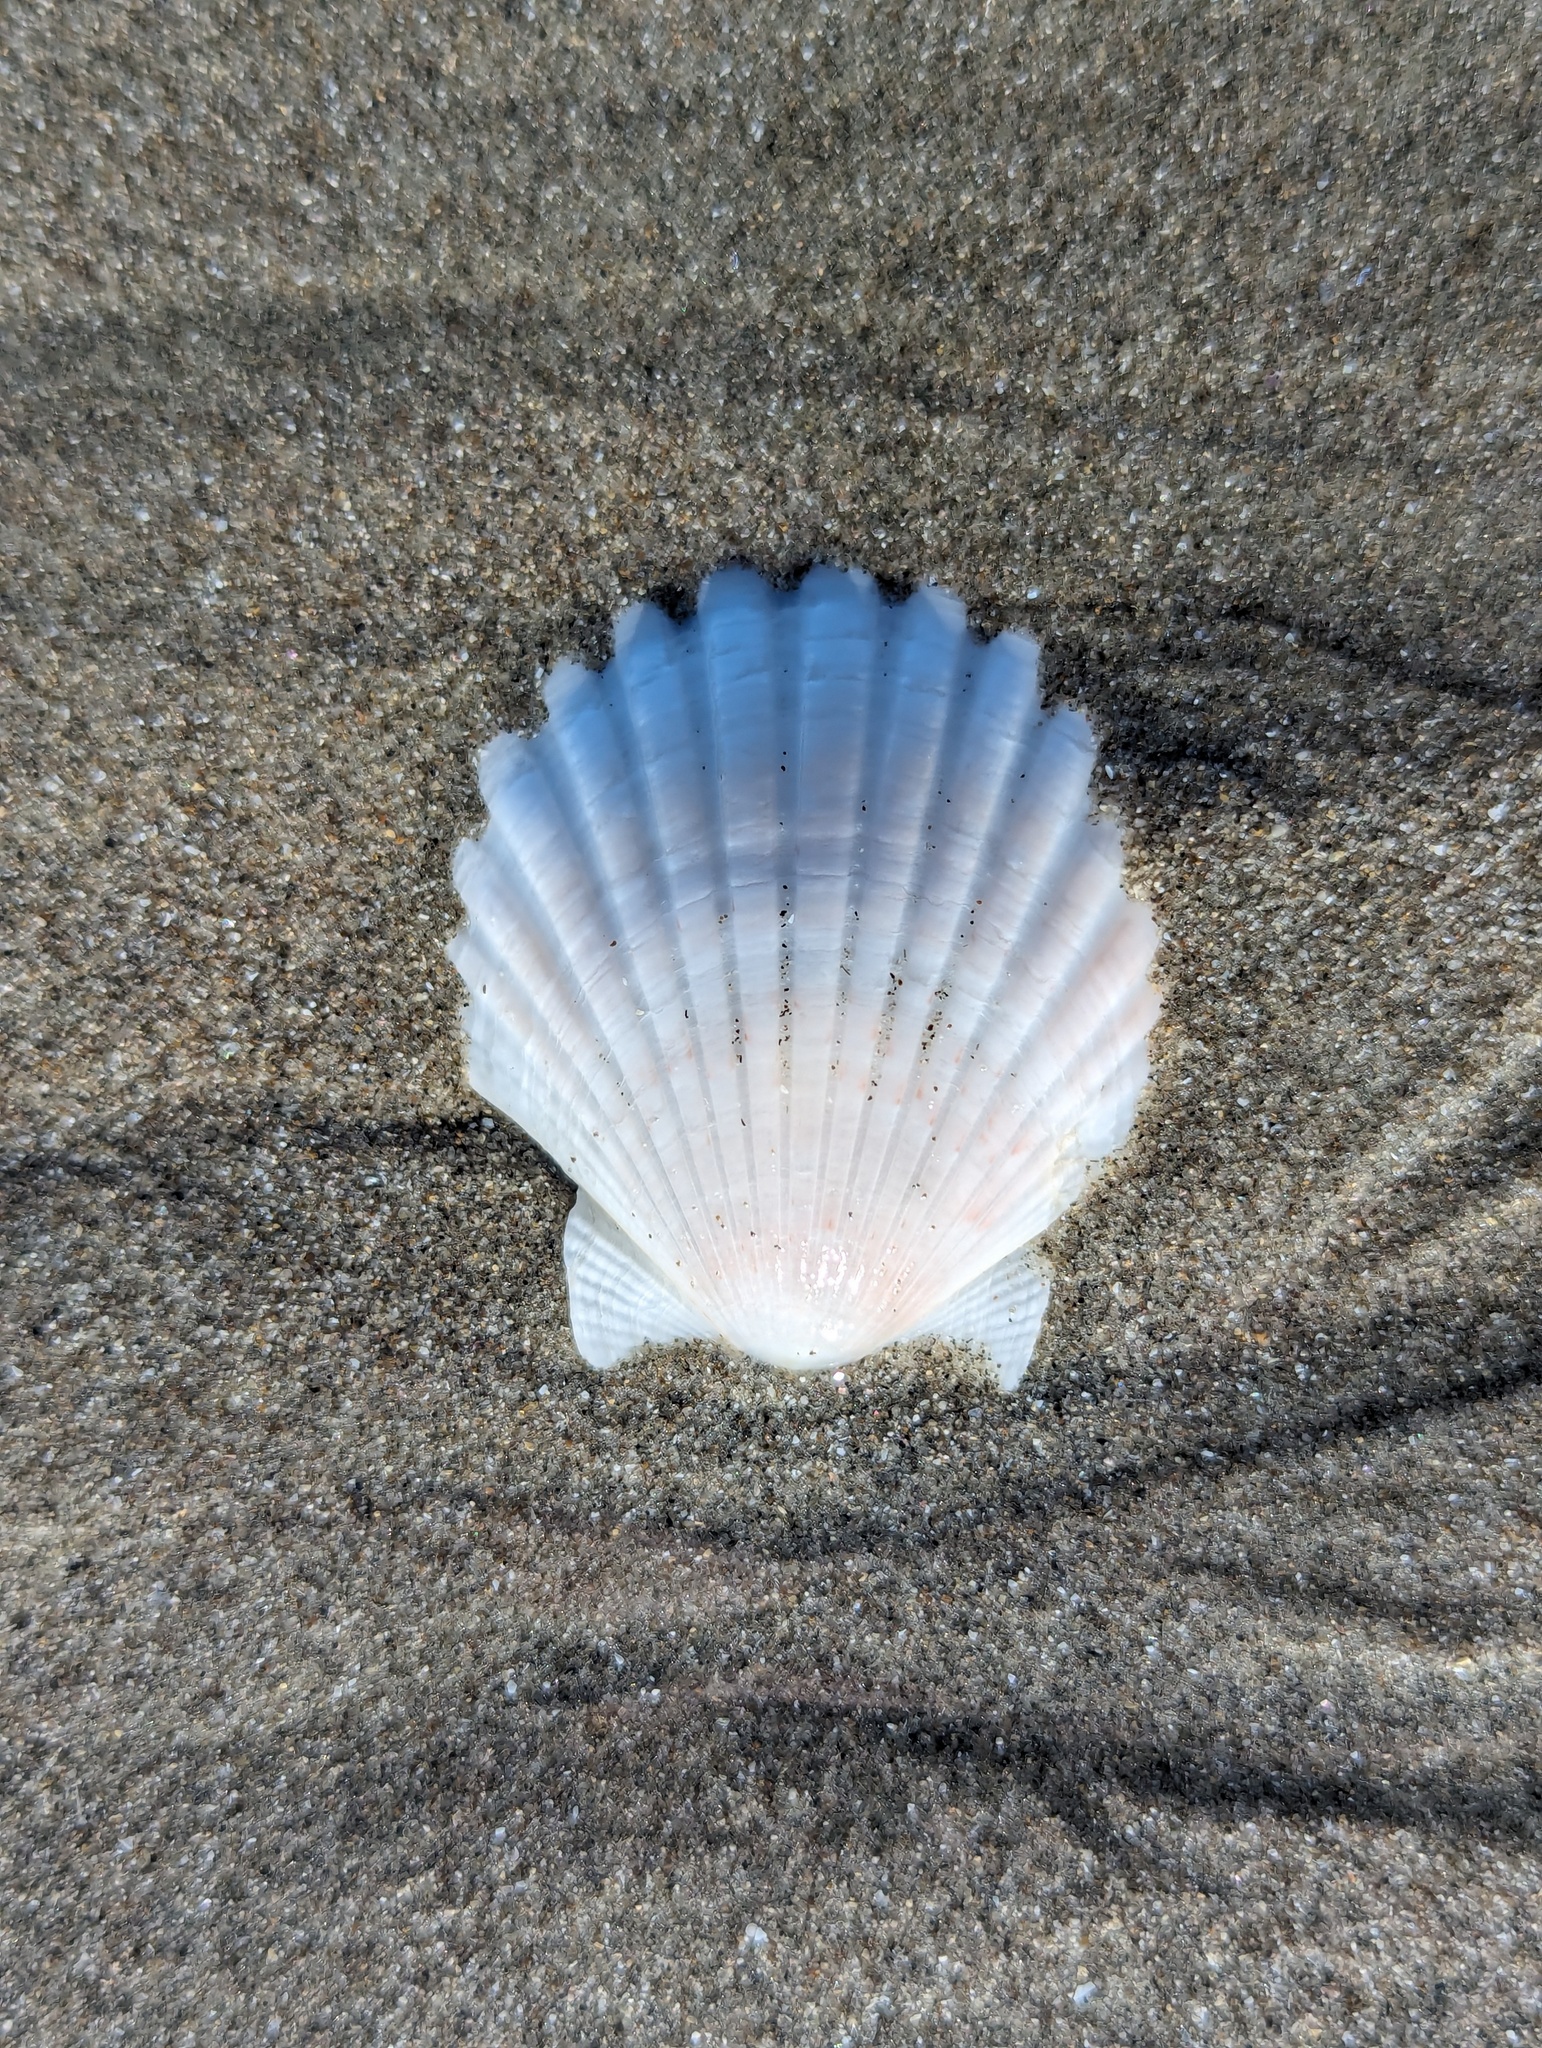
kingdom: Animalia
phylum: Mollusca
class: Bivalvia
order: Pectinida
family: Pectinidae
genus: Pecten
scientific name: Pecten novaezelandiae
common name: New zealand scallop
